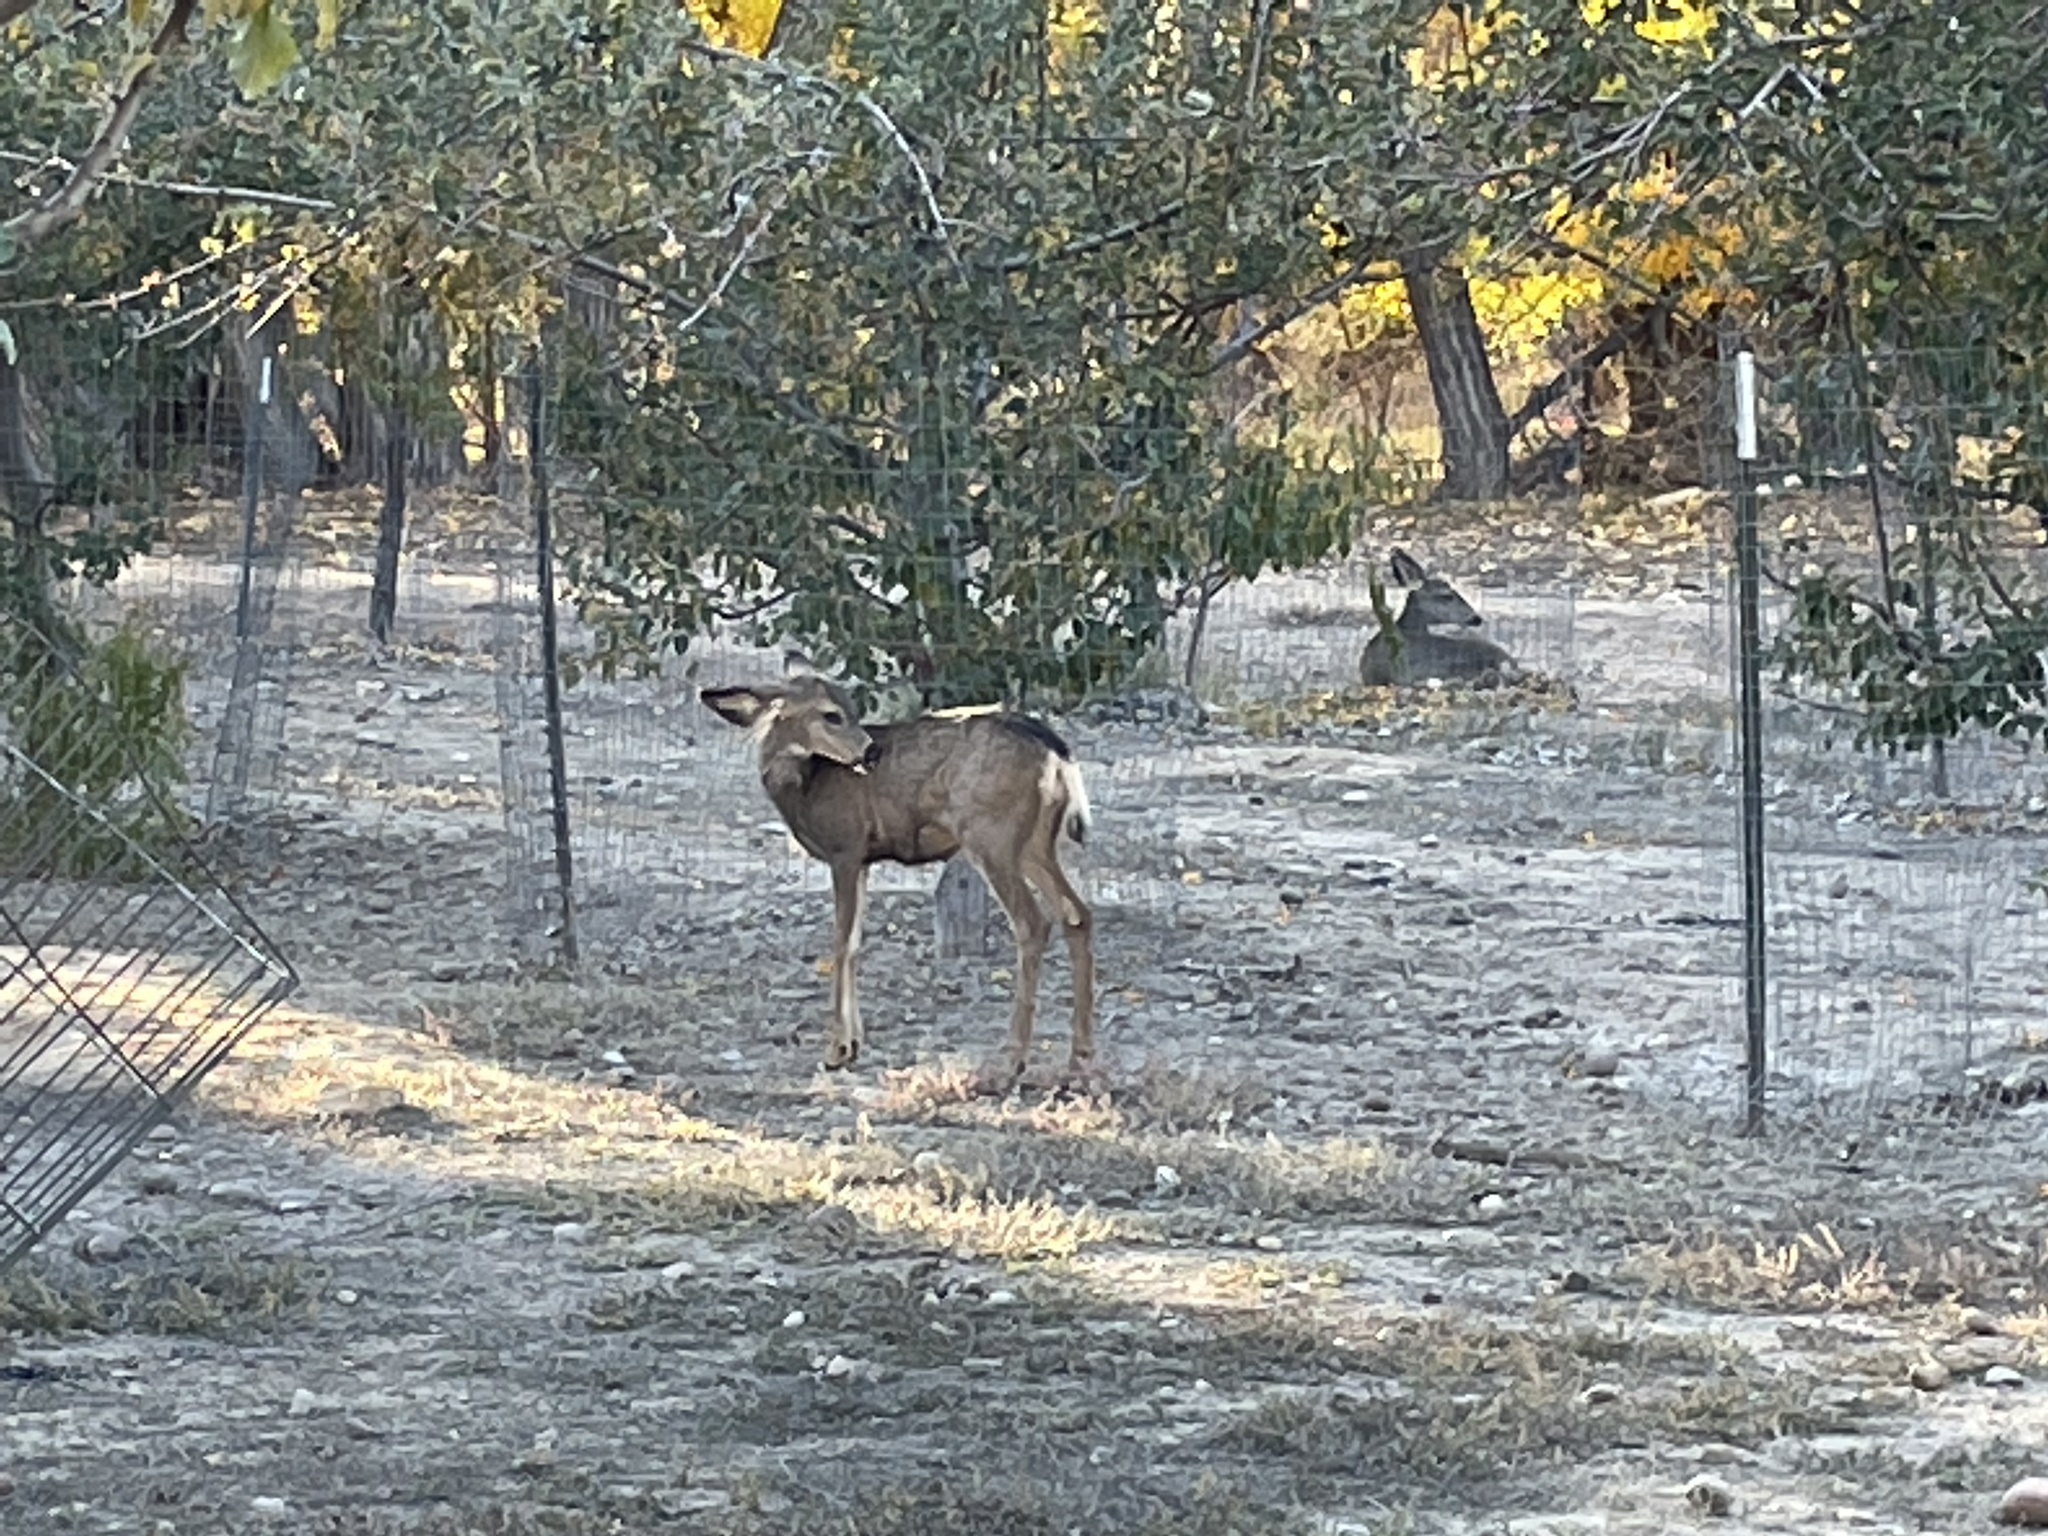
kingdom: Animalia
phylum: Chordata
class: Mammalia
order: Artiodactyla
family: Cervidae
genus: Odocoileus
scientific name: Odocoileus hemionus
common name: Mule deer
